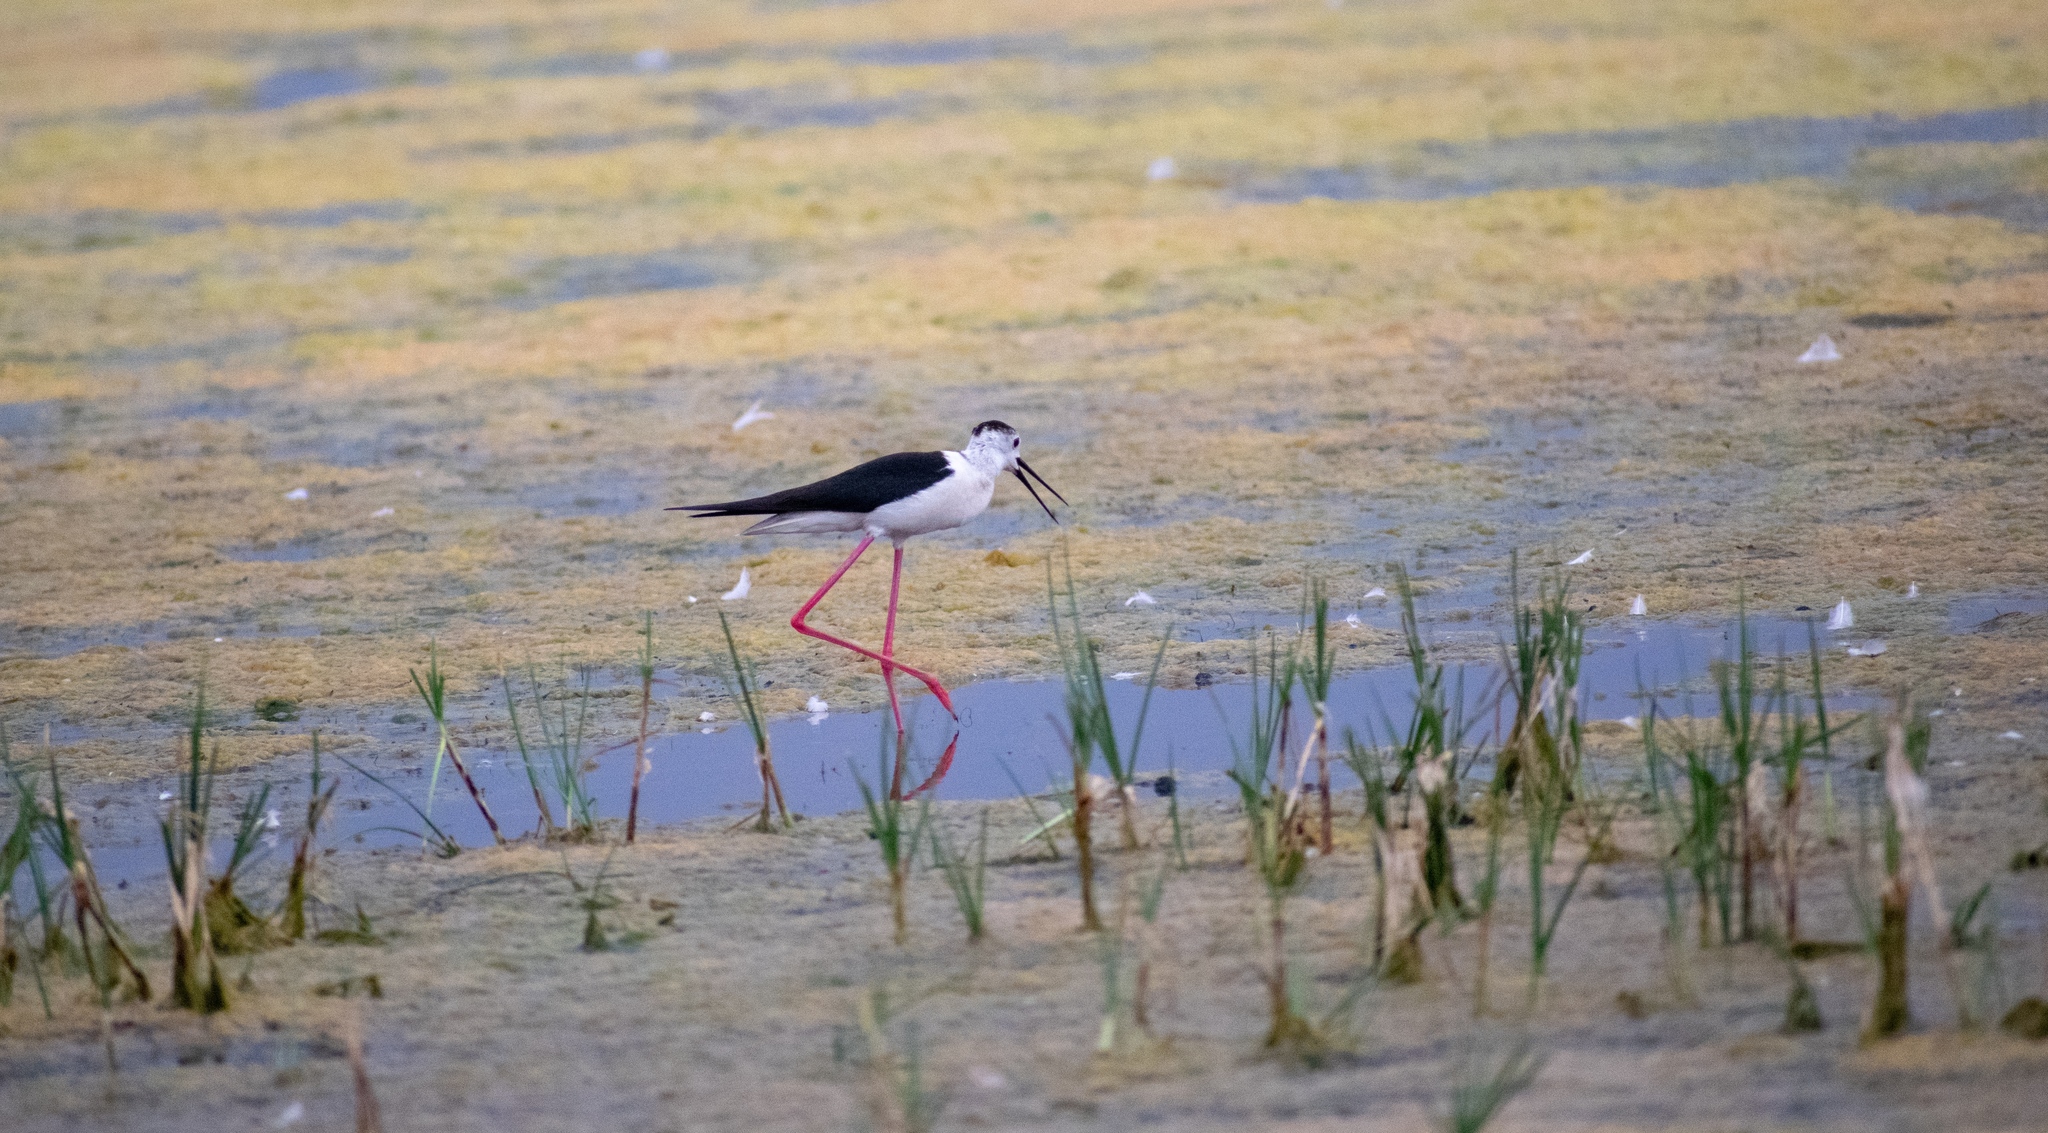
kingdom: Animalia
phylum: Chordata
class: Aves
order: Charadriiformes
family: Recurvirostridae
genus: Himantopus
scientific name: Himantopus himantopus
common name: Black-winged stilt
